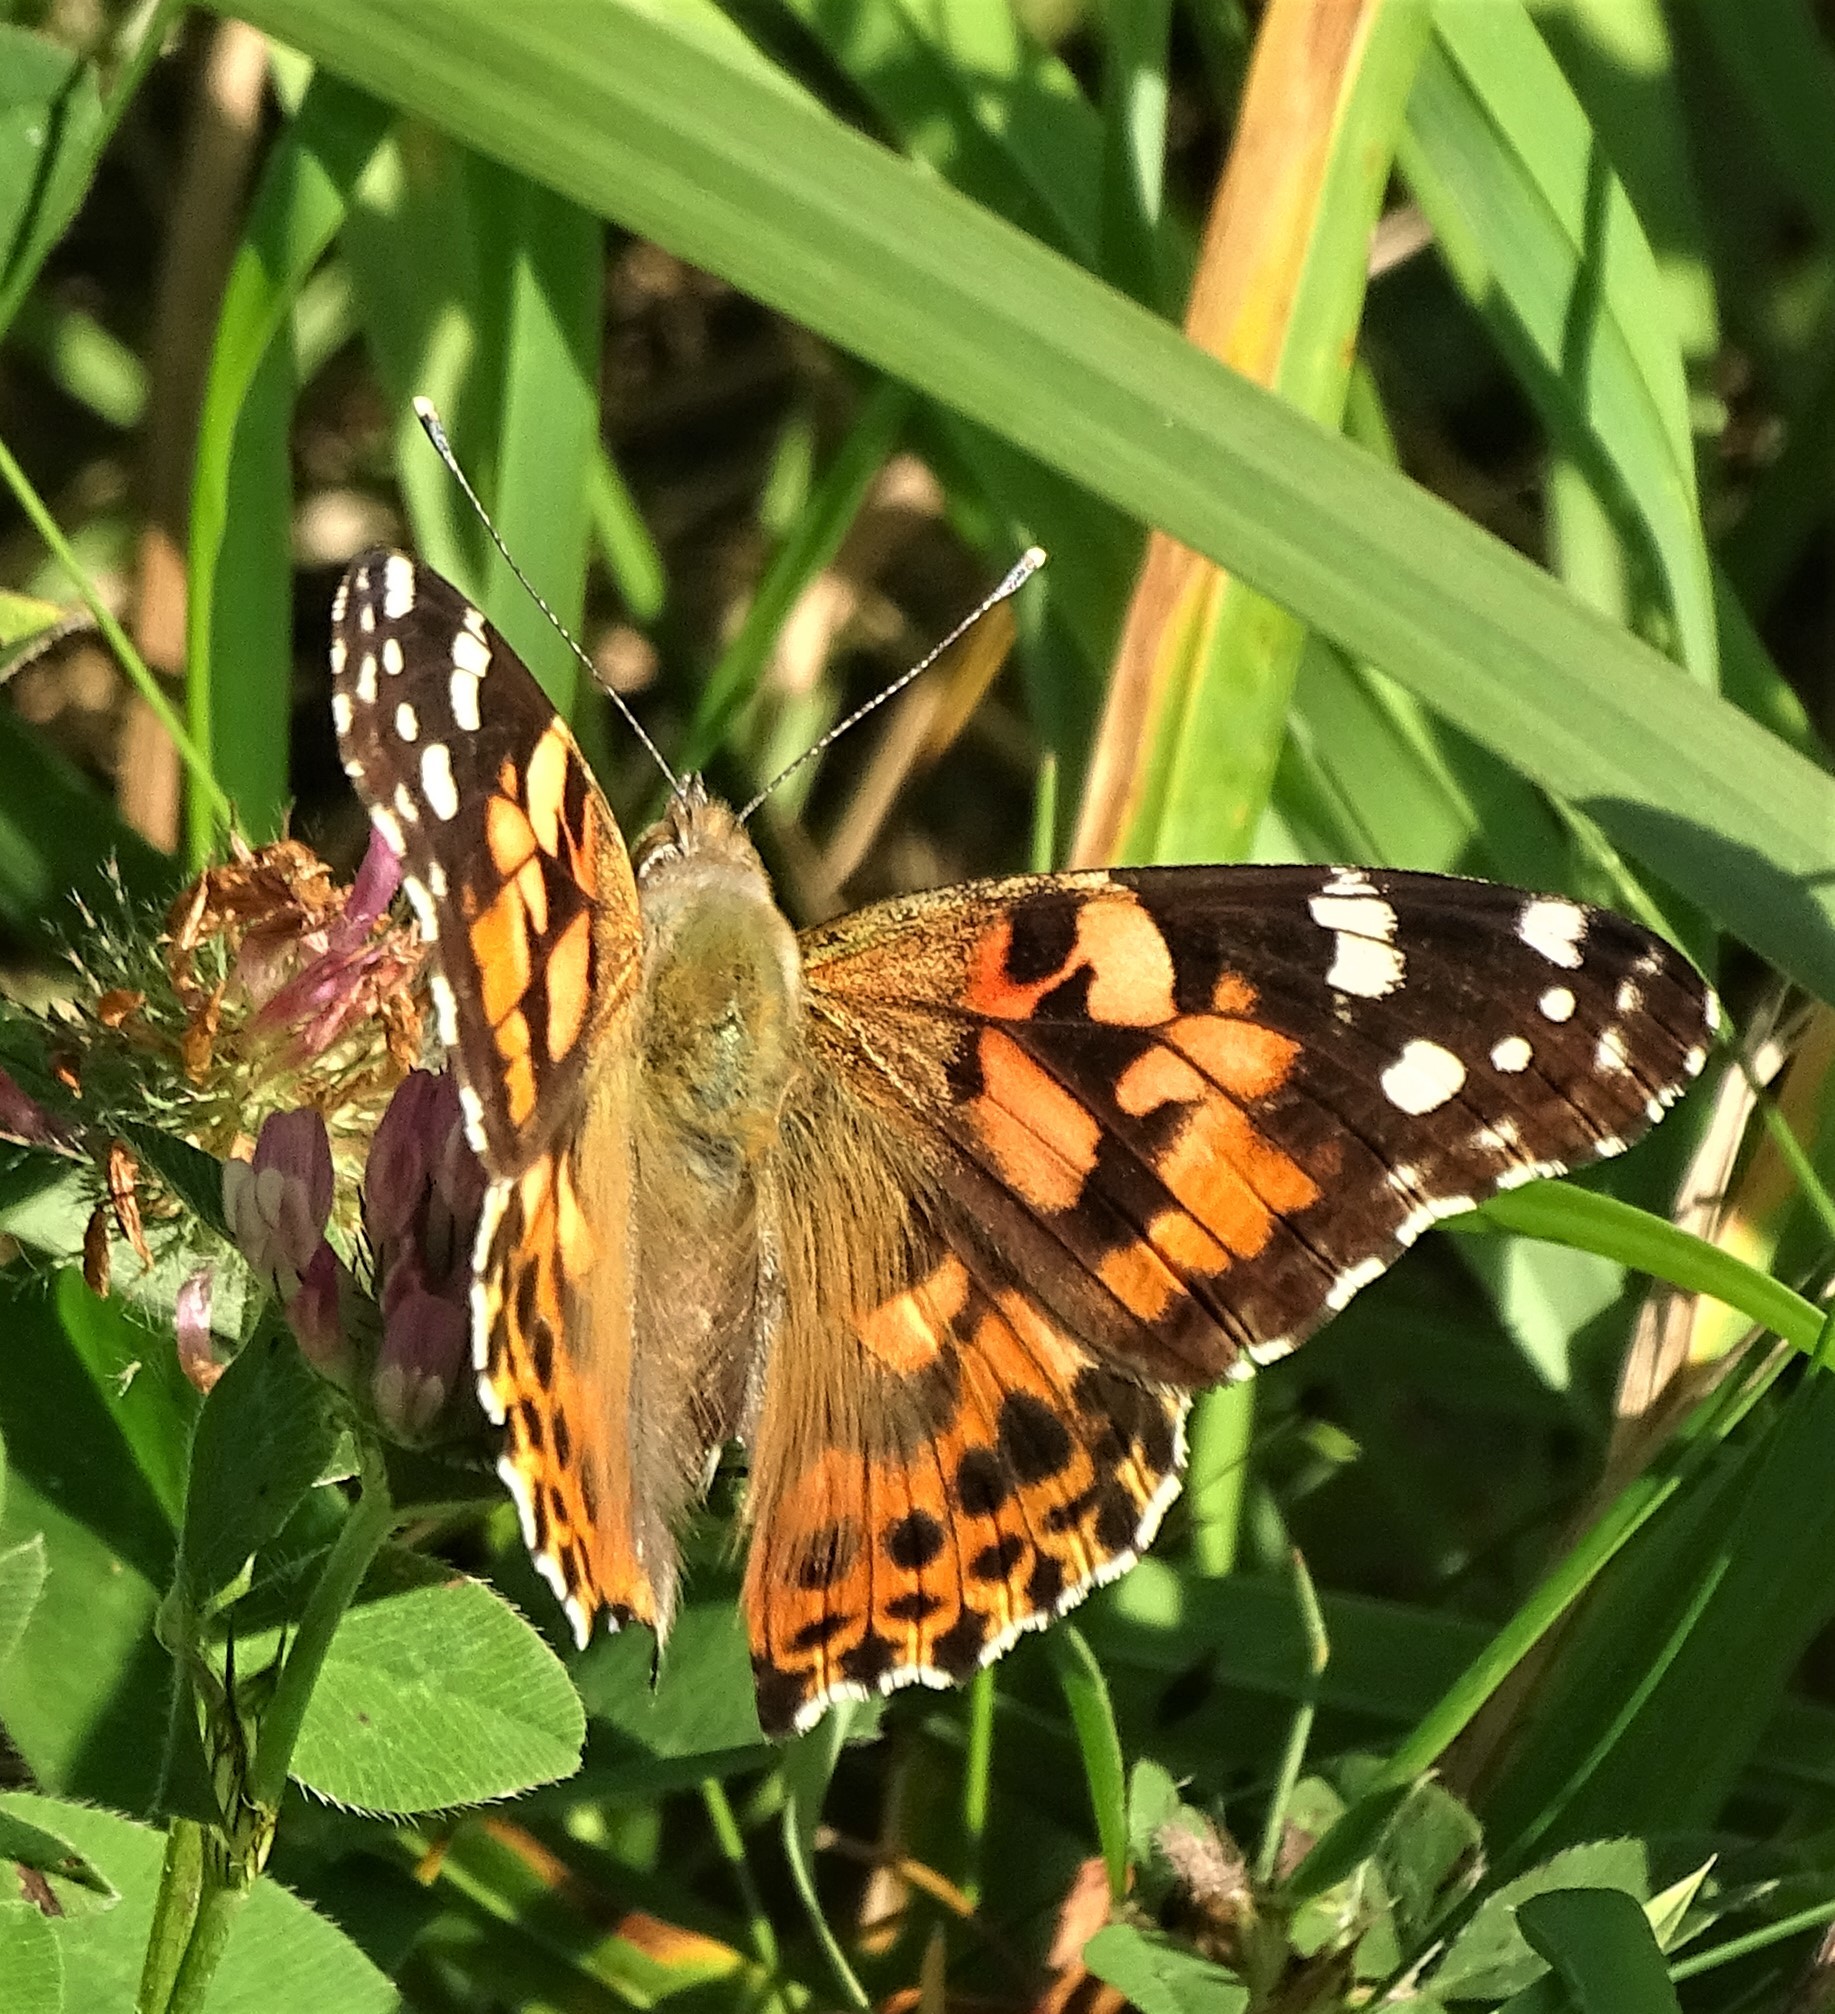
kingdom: Animalia
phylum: Arthropoda
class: Insecta
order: Lepidoptera
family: Nymphalidae
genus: Vanessa
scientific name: Vanessa cardui
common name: Painted lady
